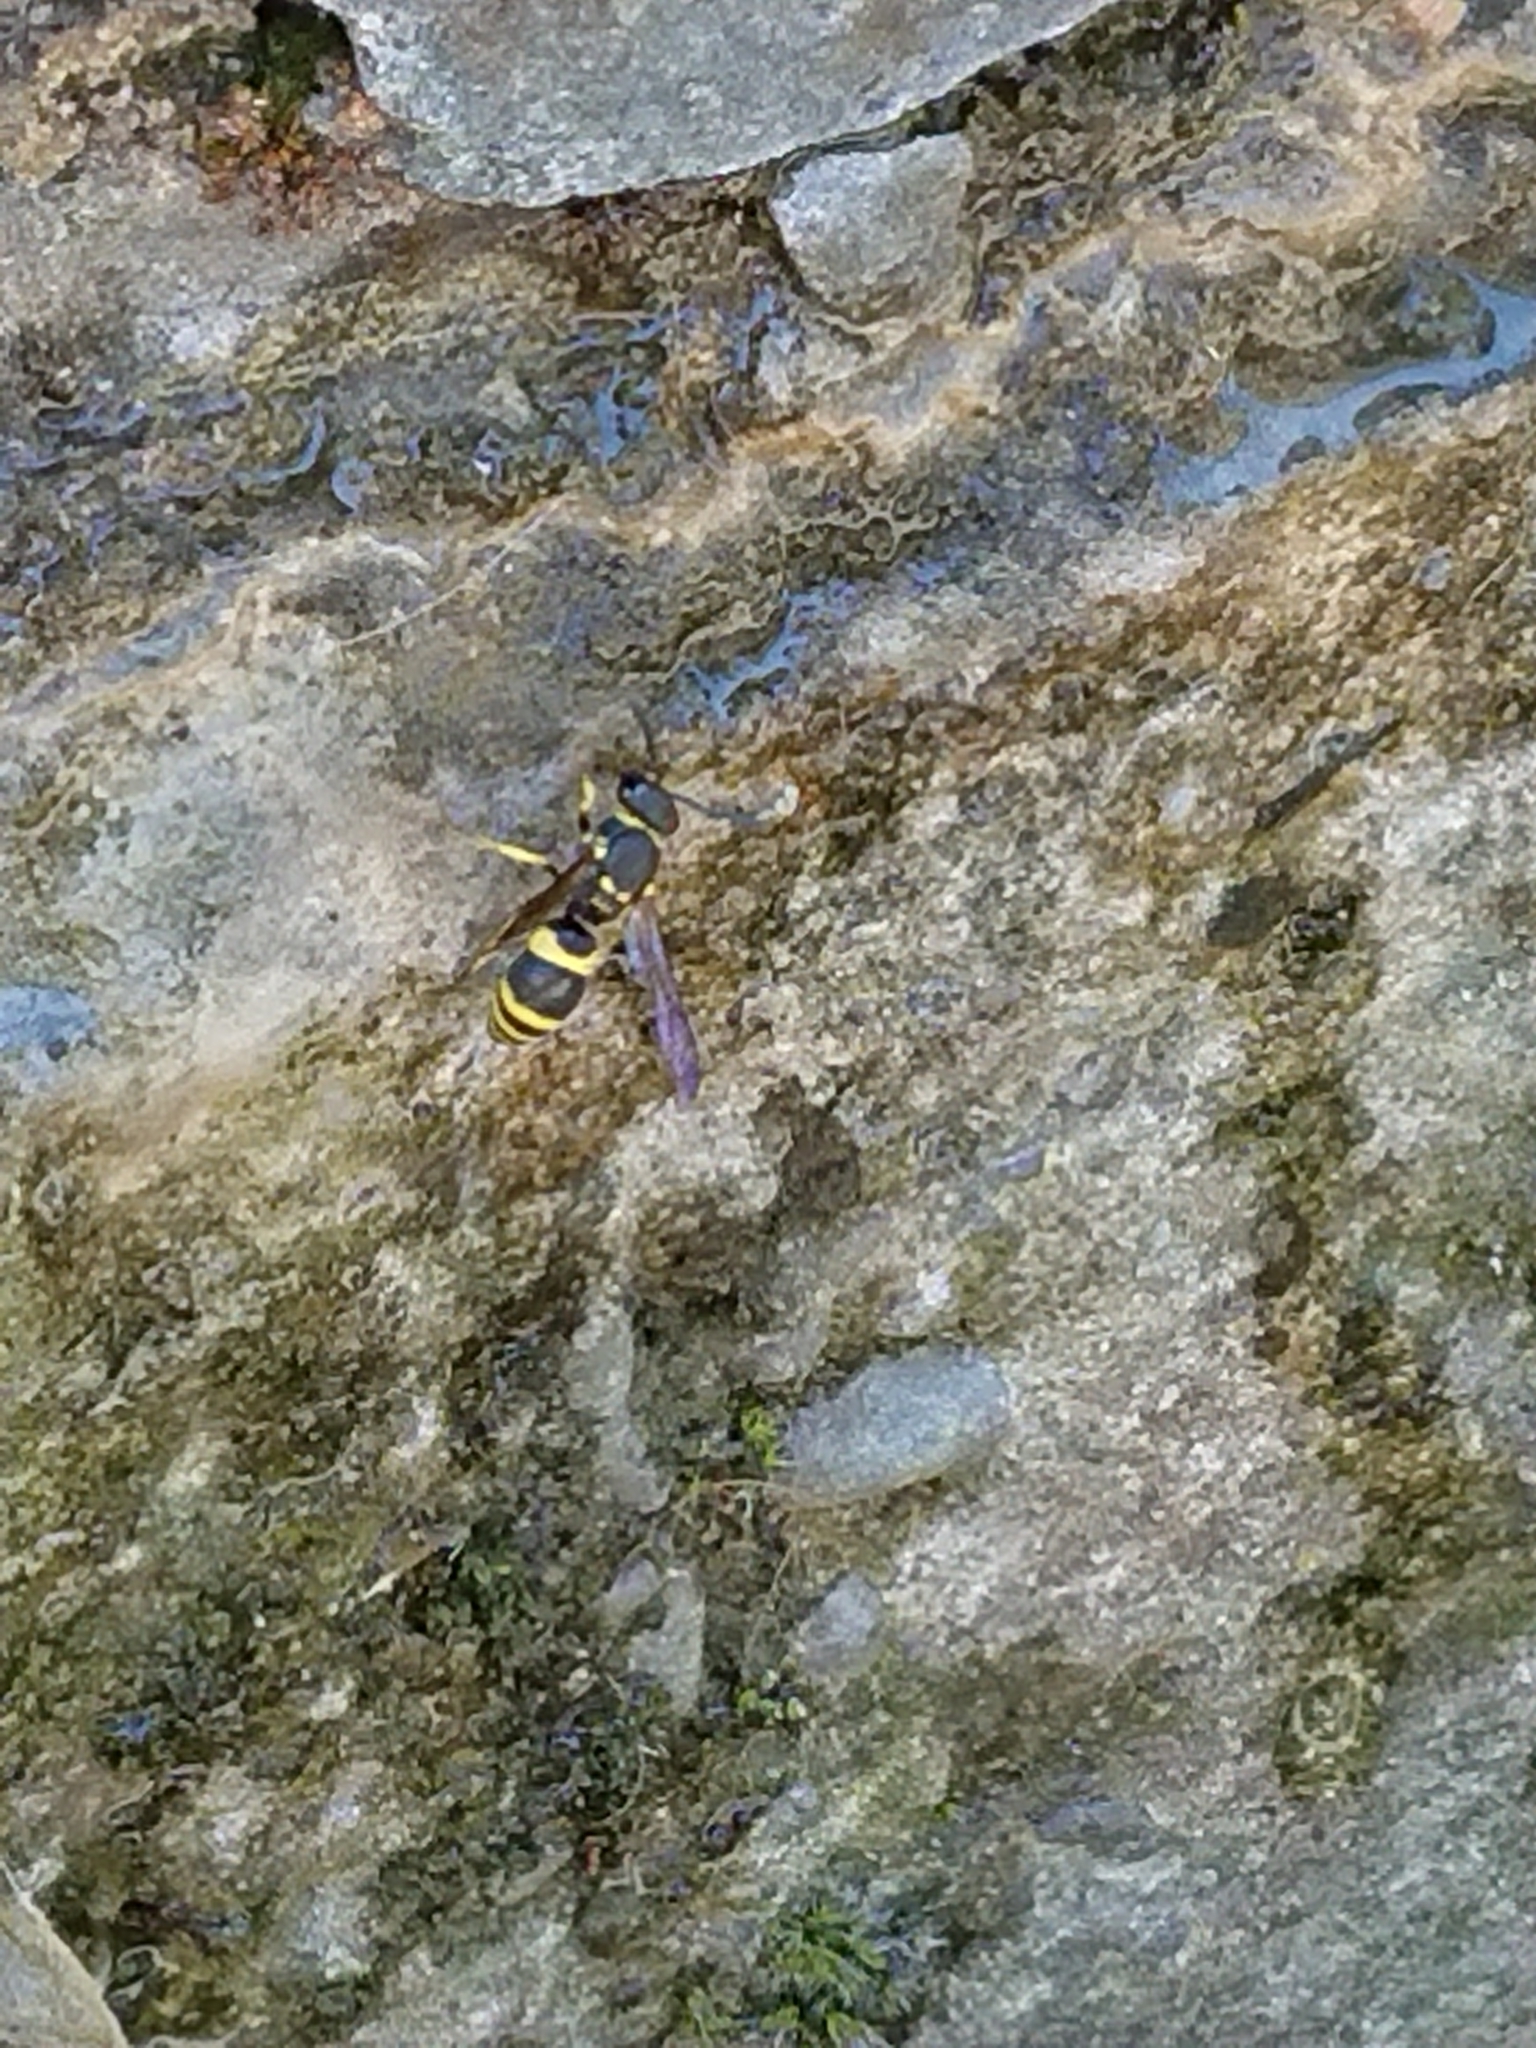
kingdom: Animalia
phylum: Arthropoda
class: Insecta
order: Hymenoptera
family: Vespidae
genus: Ancistrocerus
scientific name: Ancistrocerus gazella
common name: European tube wasp
